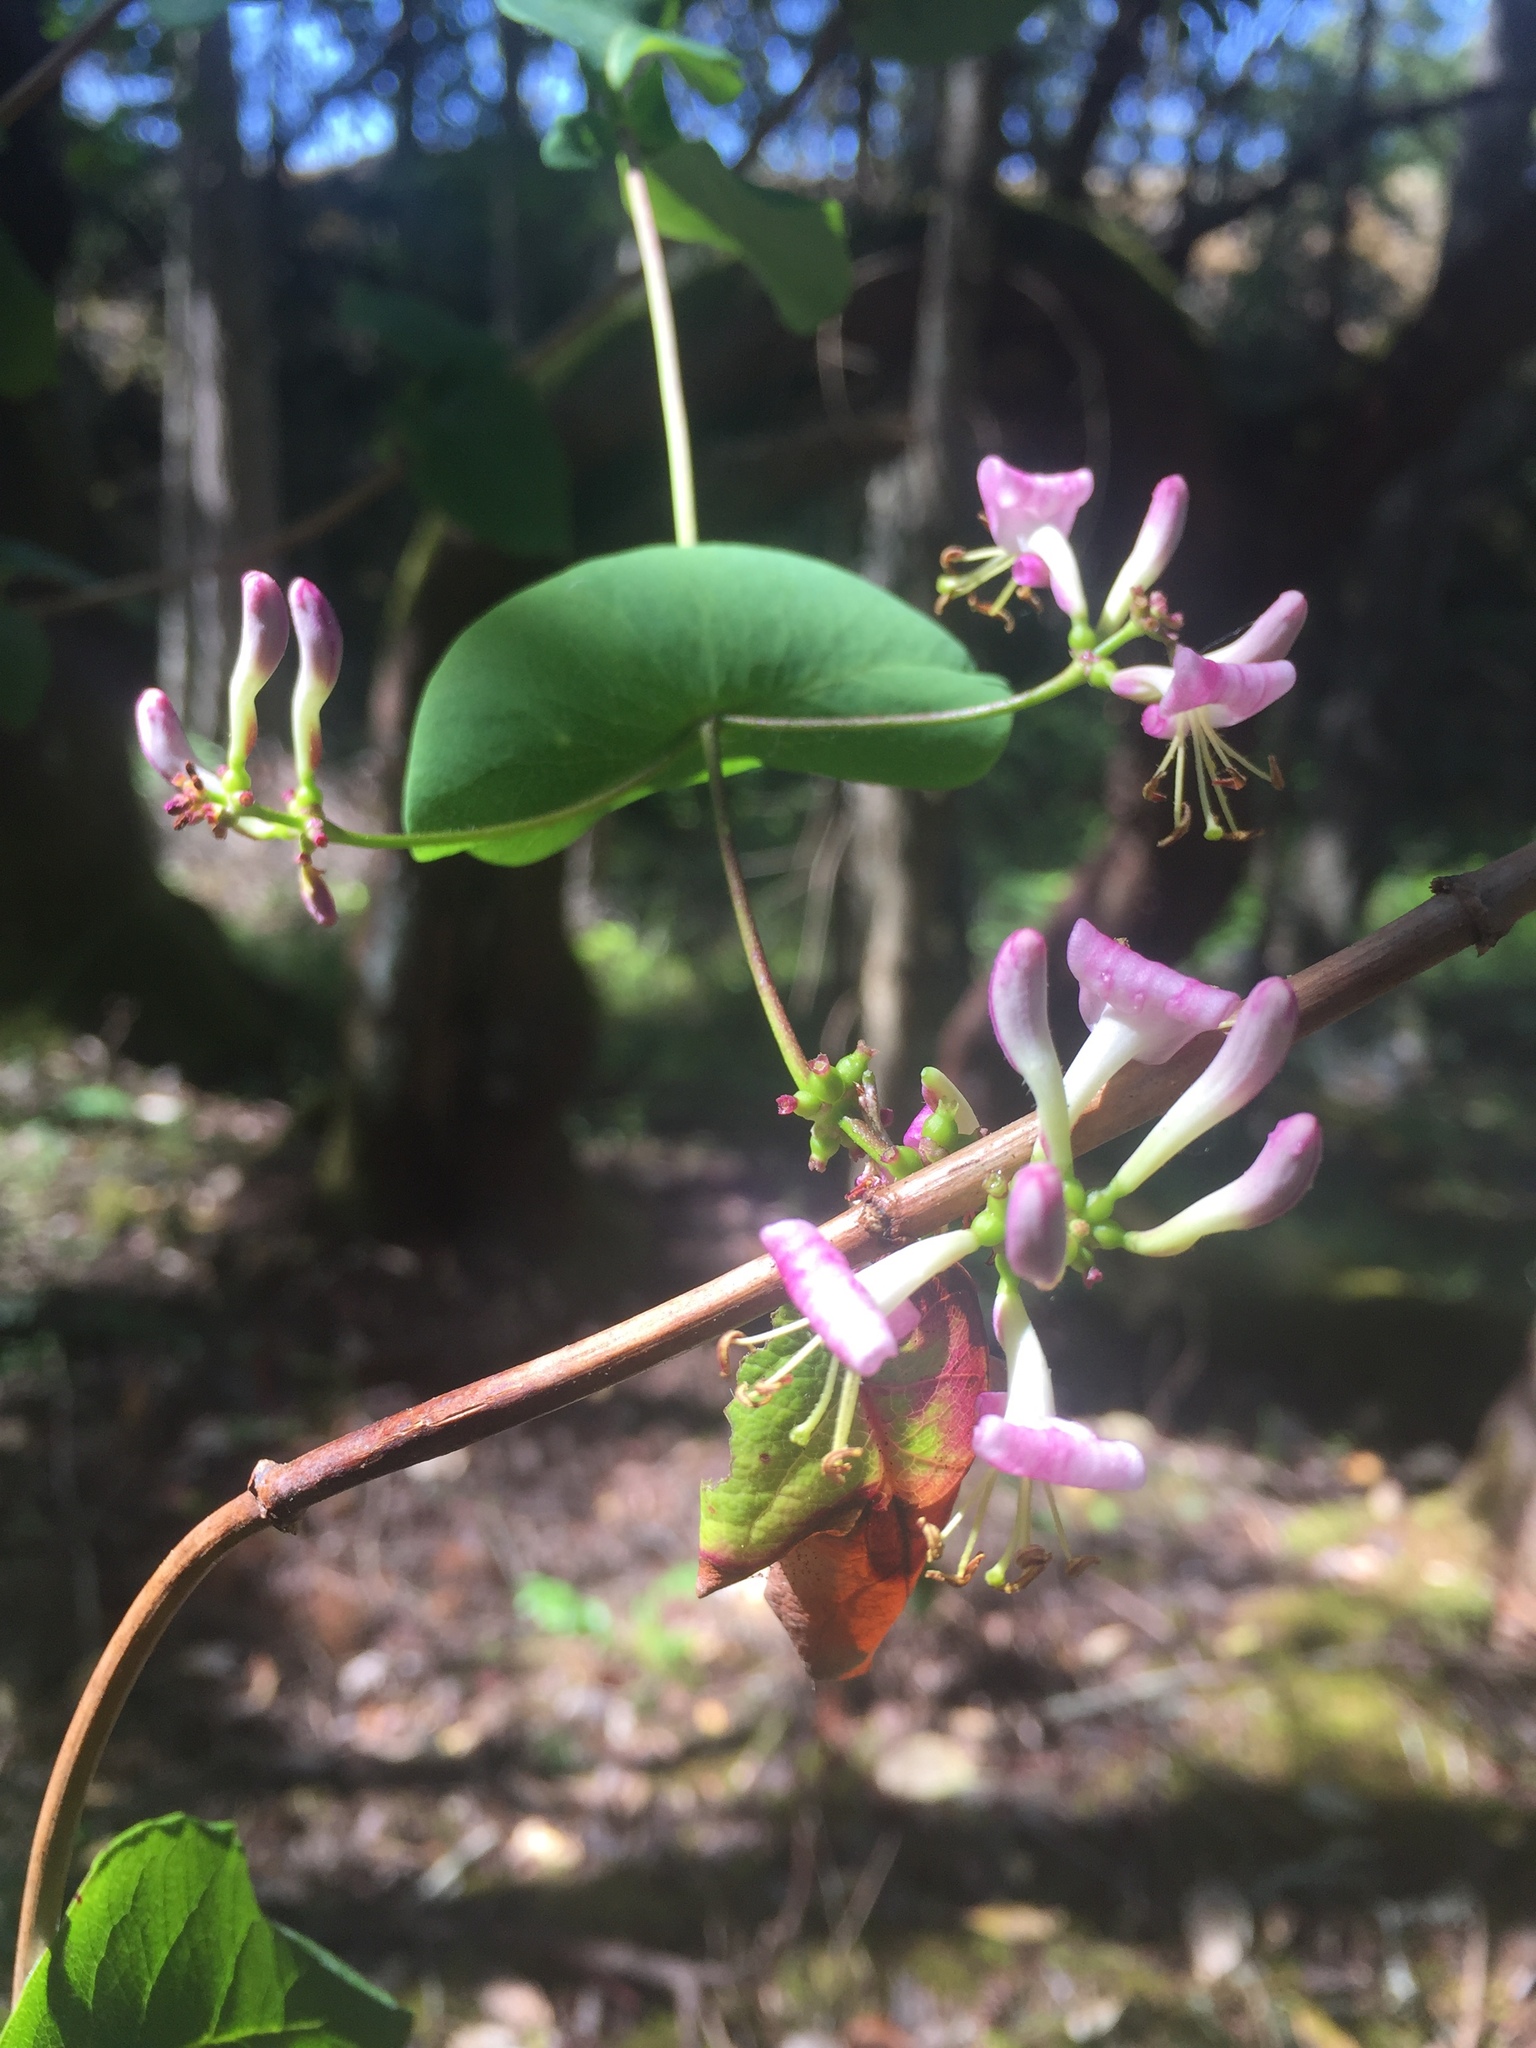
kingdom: Plantae
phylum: Tracheophyta
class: Magnoliopsida
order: Dipsacales
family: Caprifoliaceae
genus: Lonicera
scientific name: Lonicera hispidula
